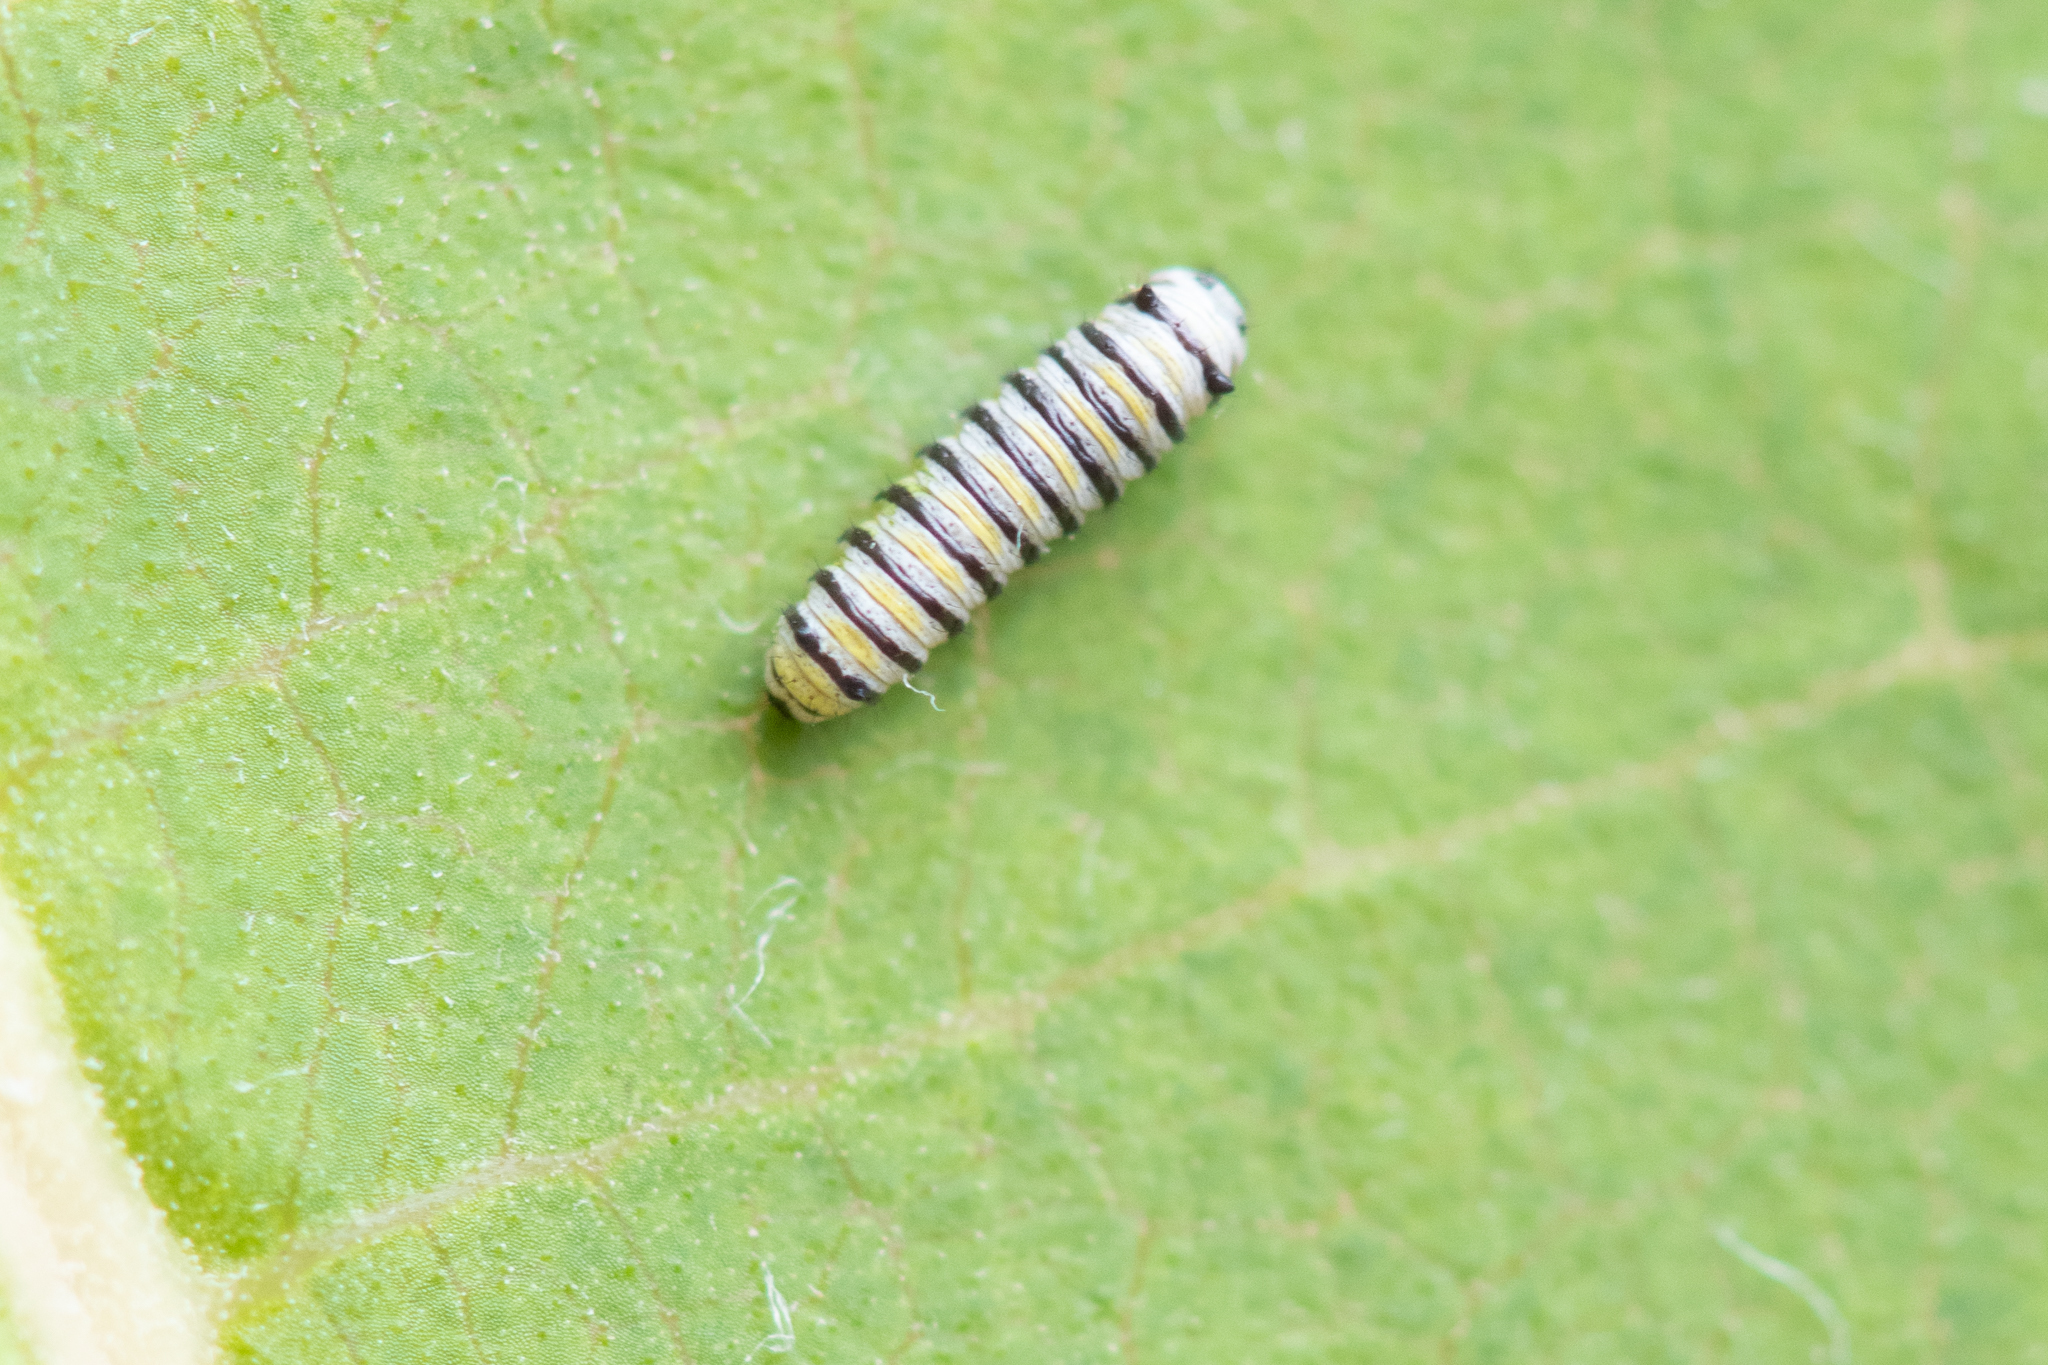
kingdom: Animalia
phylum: Arthropoda
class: Insecta
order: Lepidoptera
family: Nymphalidae
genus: Danaus
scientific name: Danaus plexippus
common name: Monarch
